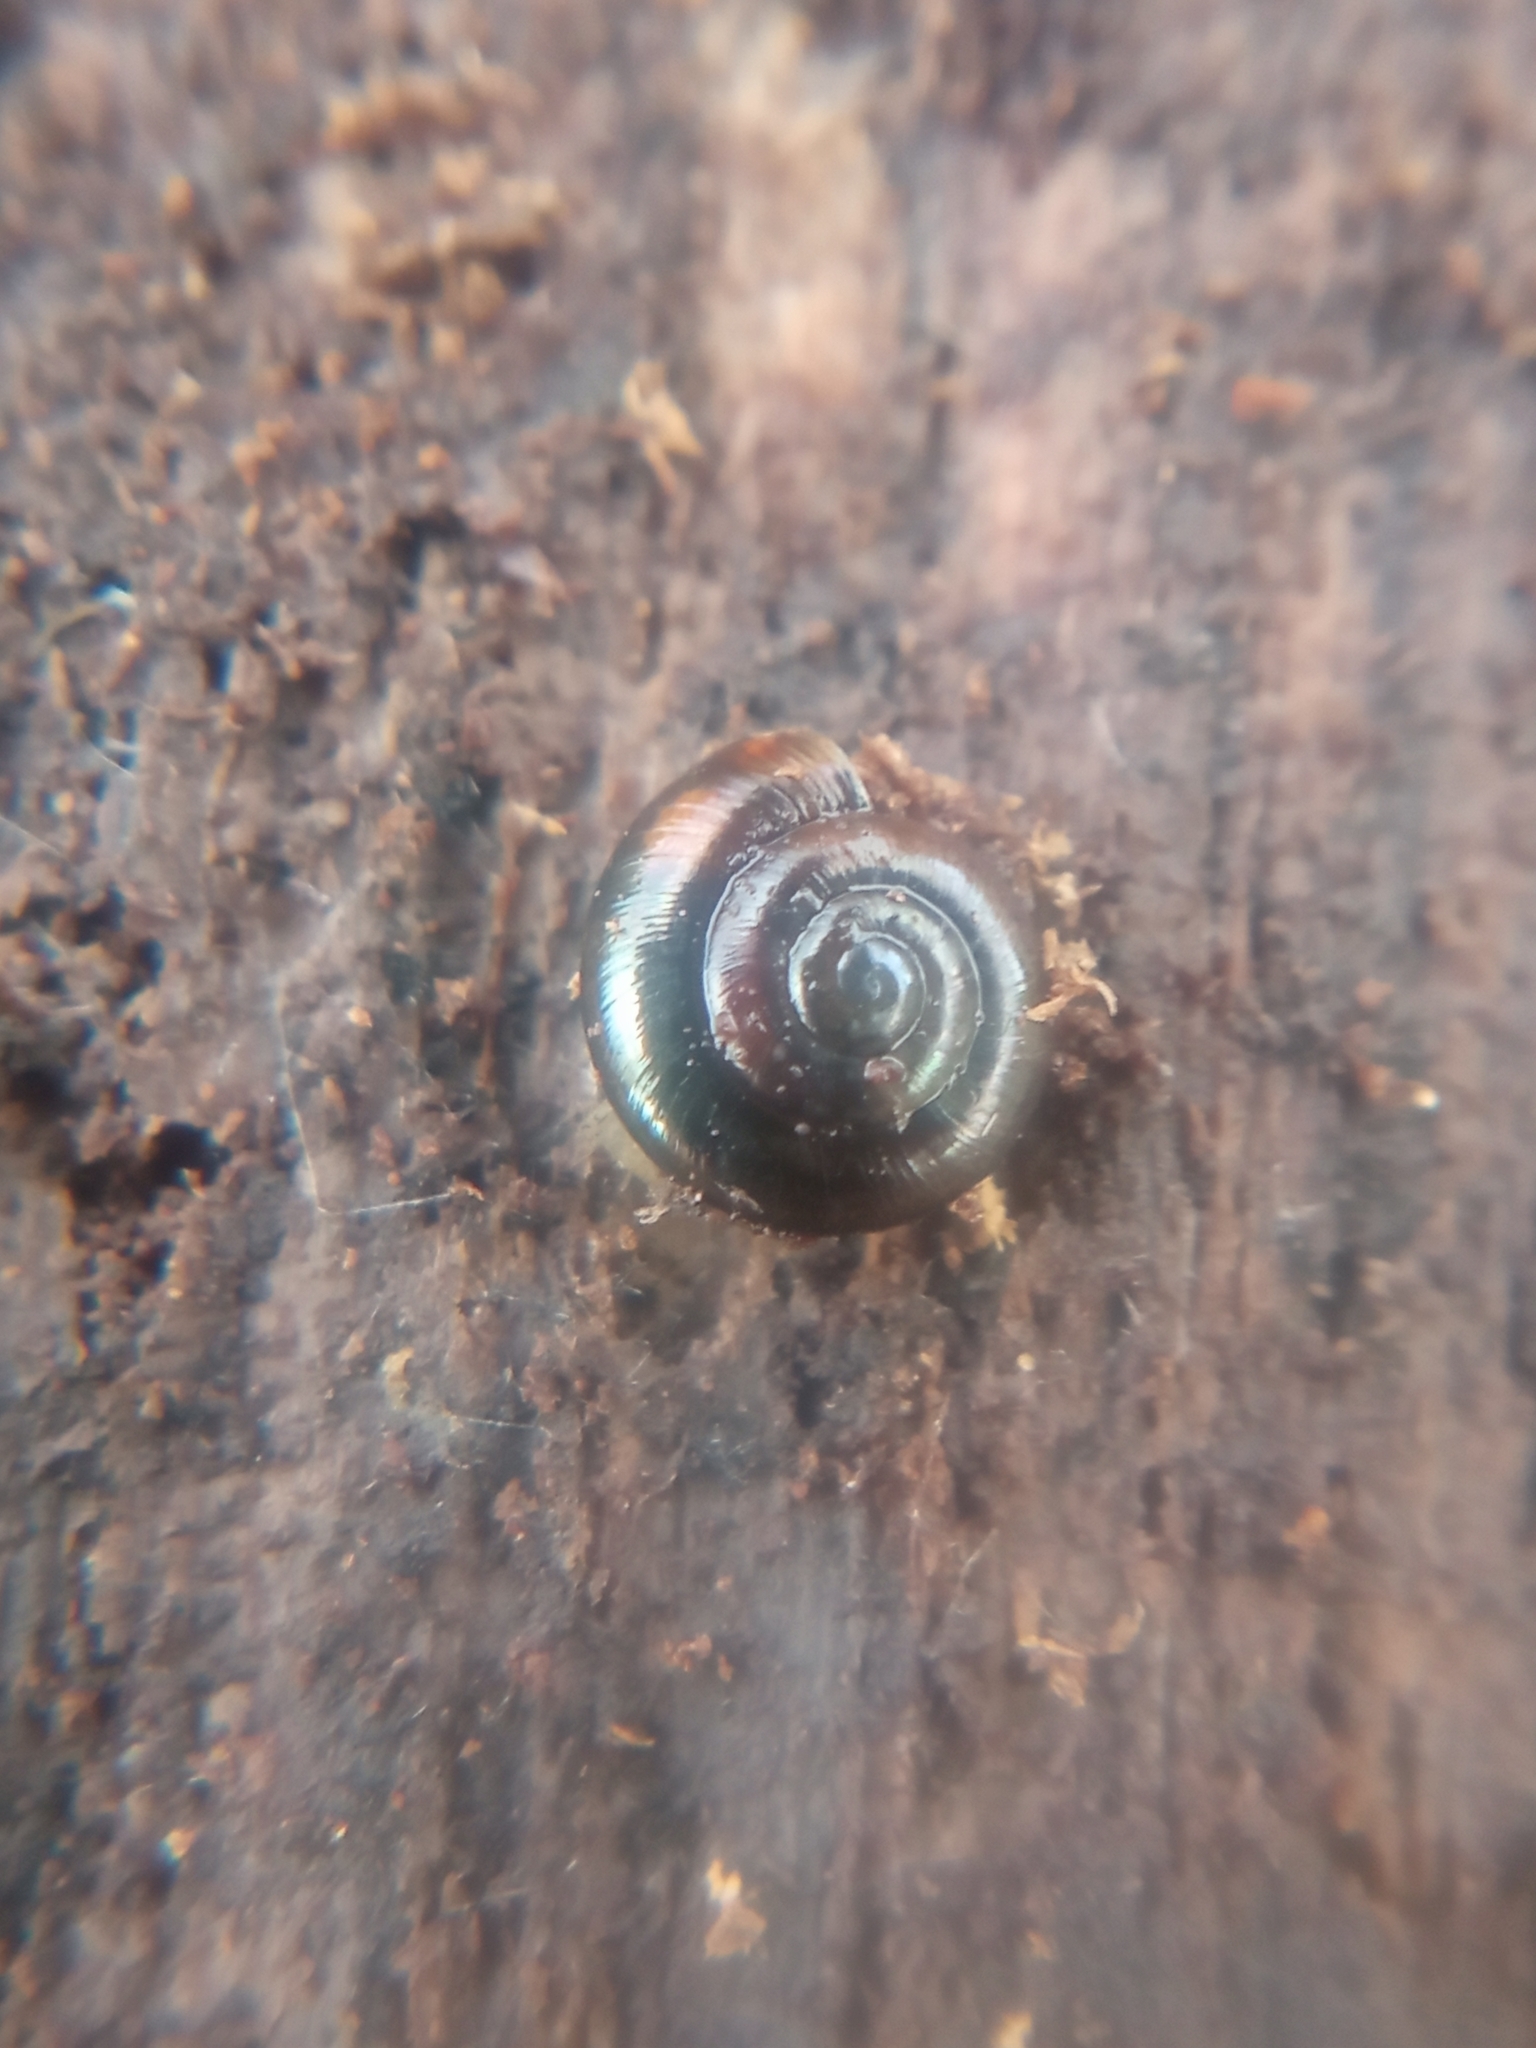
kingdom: Animalia
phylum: Mollusca
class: Gastropoda
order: Stylommatophora
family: Gastrodontidae
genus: Zonitoides
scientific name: Zonitoides nitidus
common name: Shiny glass snail
